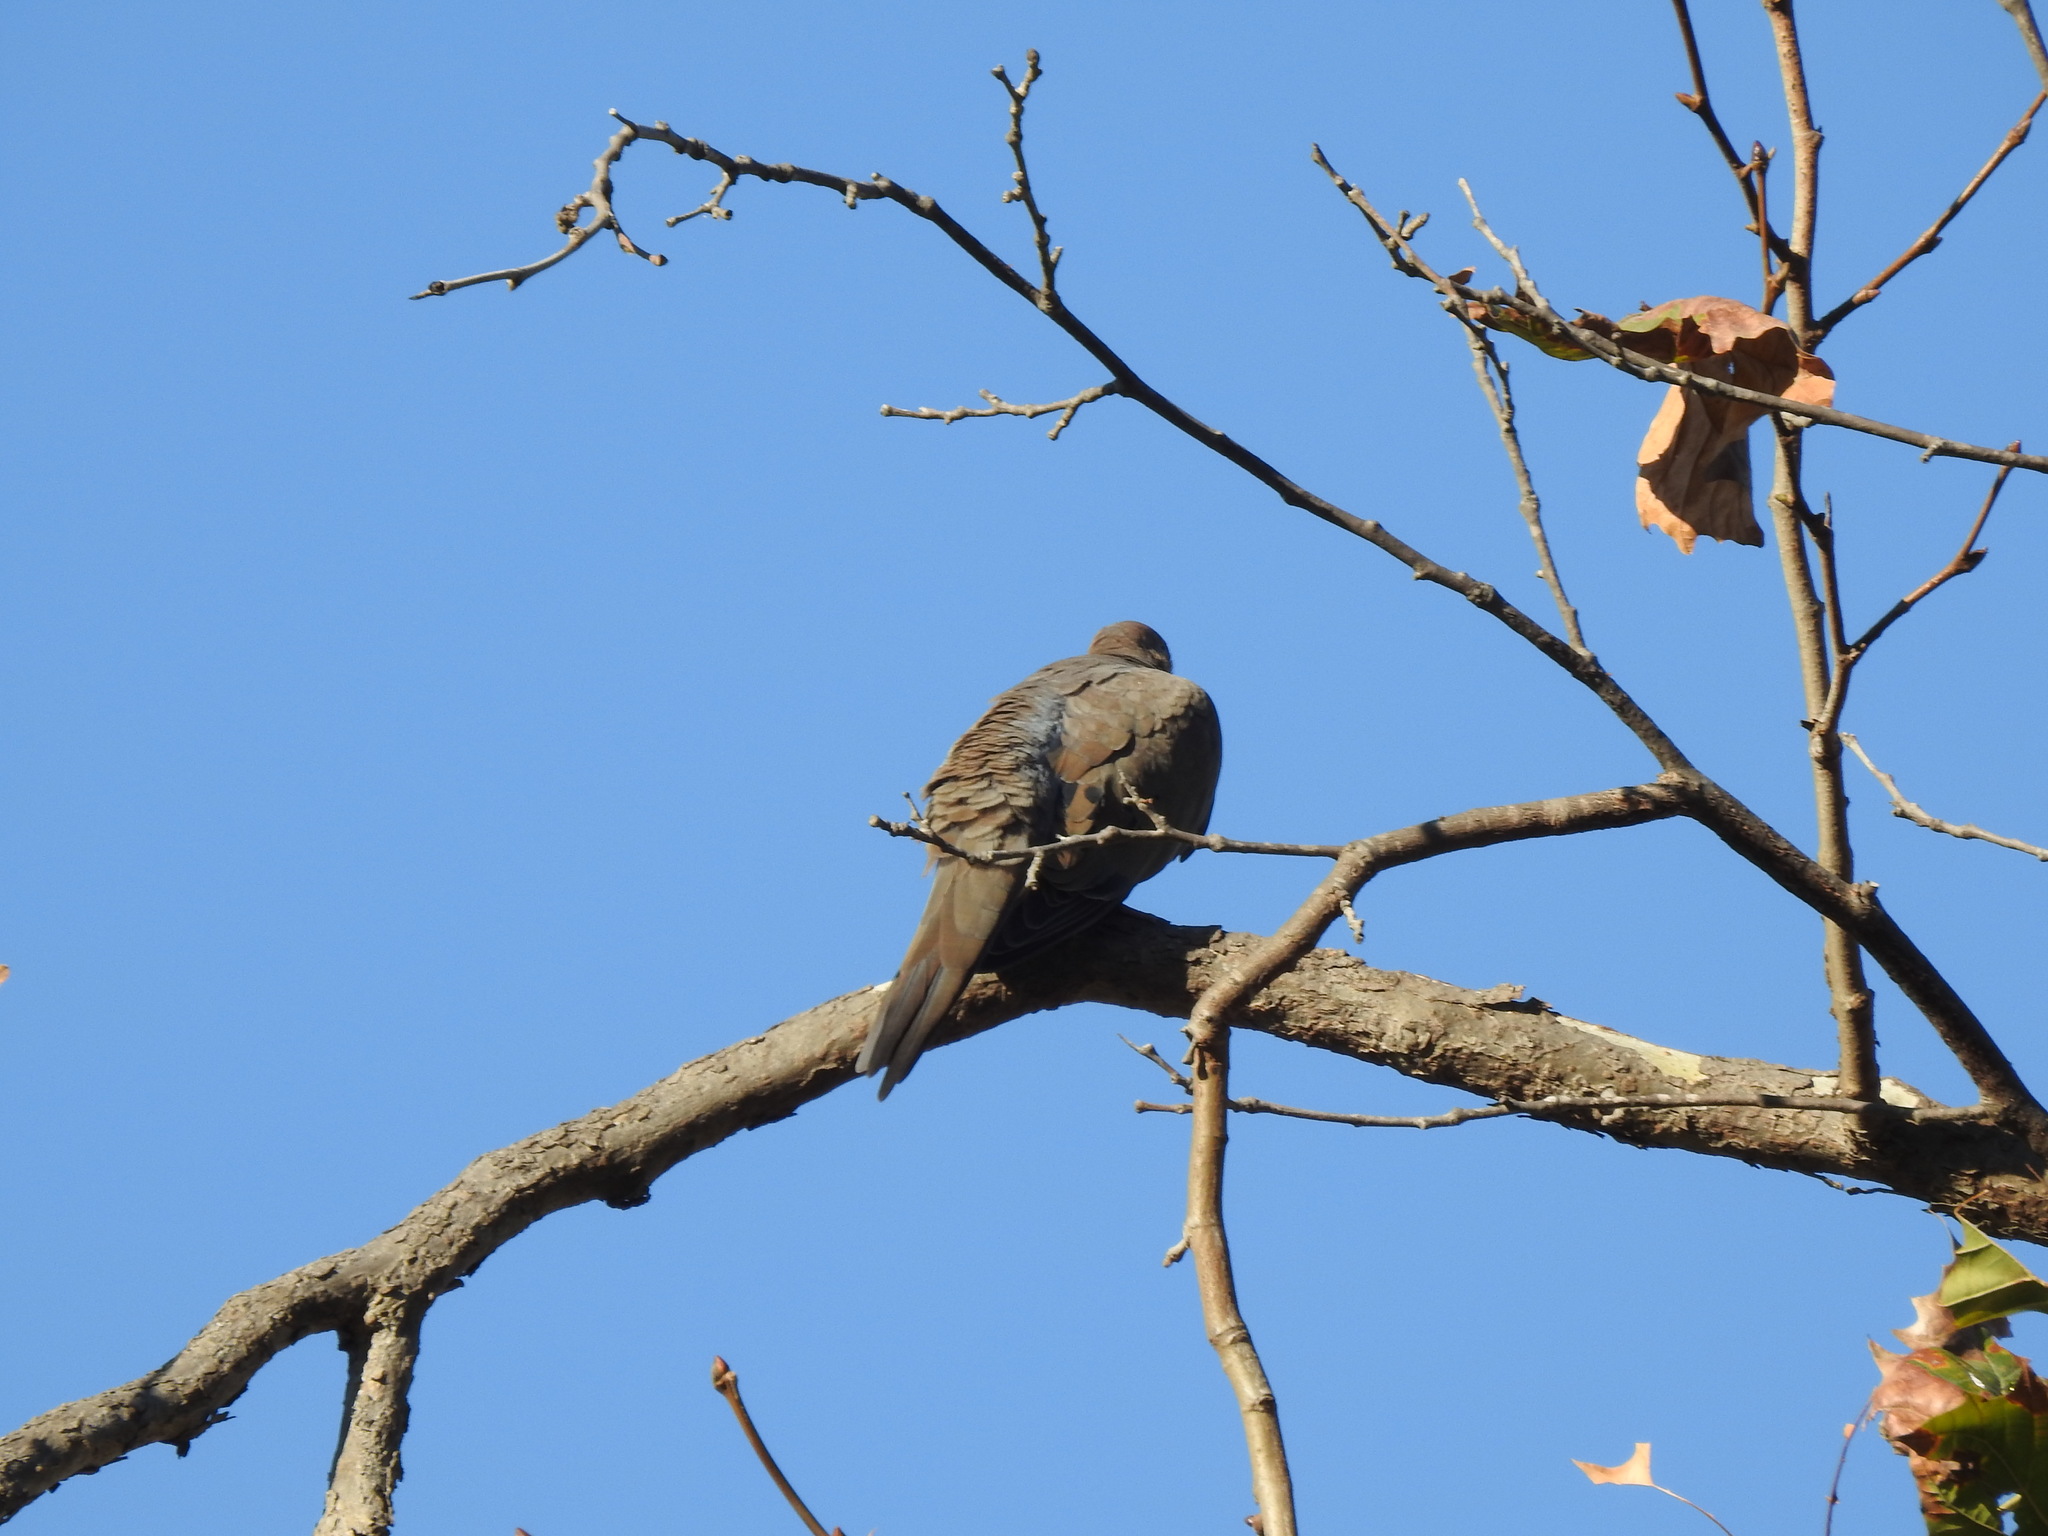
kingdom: Animalia
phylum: Chordata
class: Aves
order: Columbiformes
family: Columbidae
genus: Zenaida
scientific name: Zenaida macroura
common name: Mourning dove
